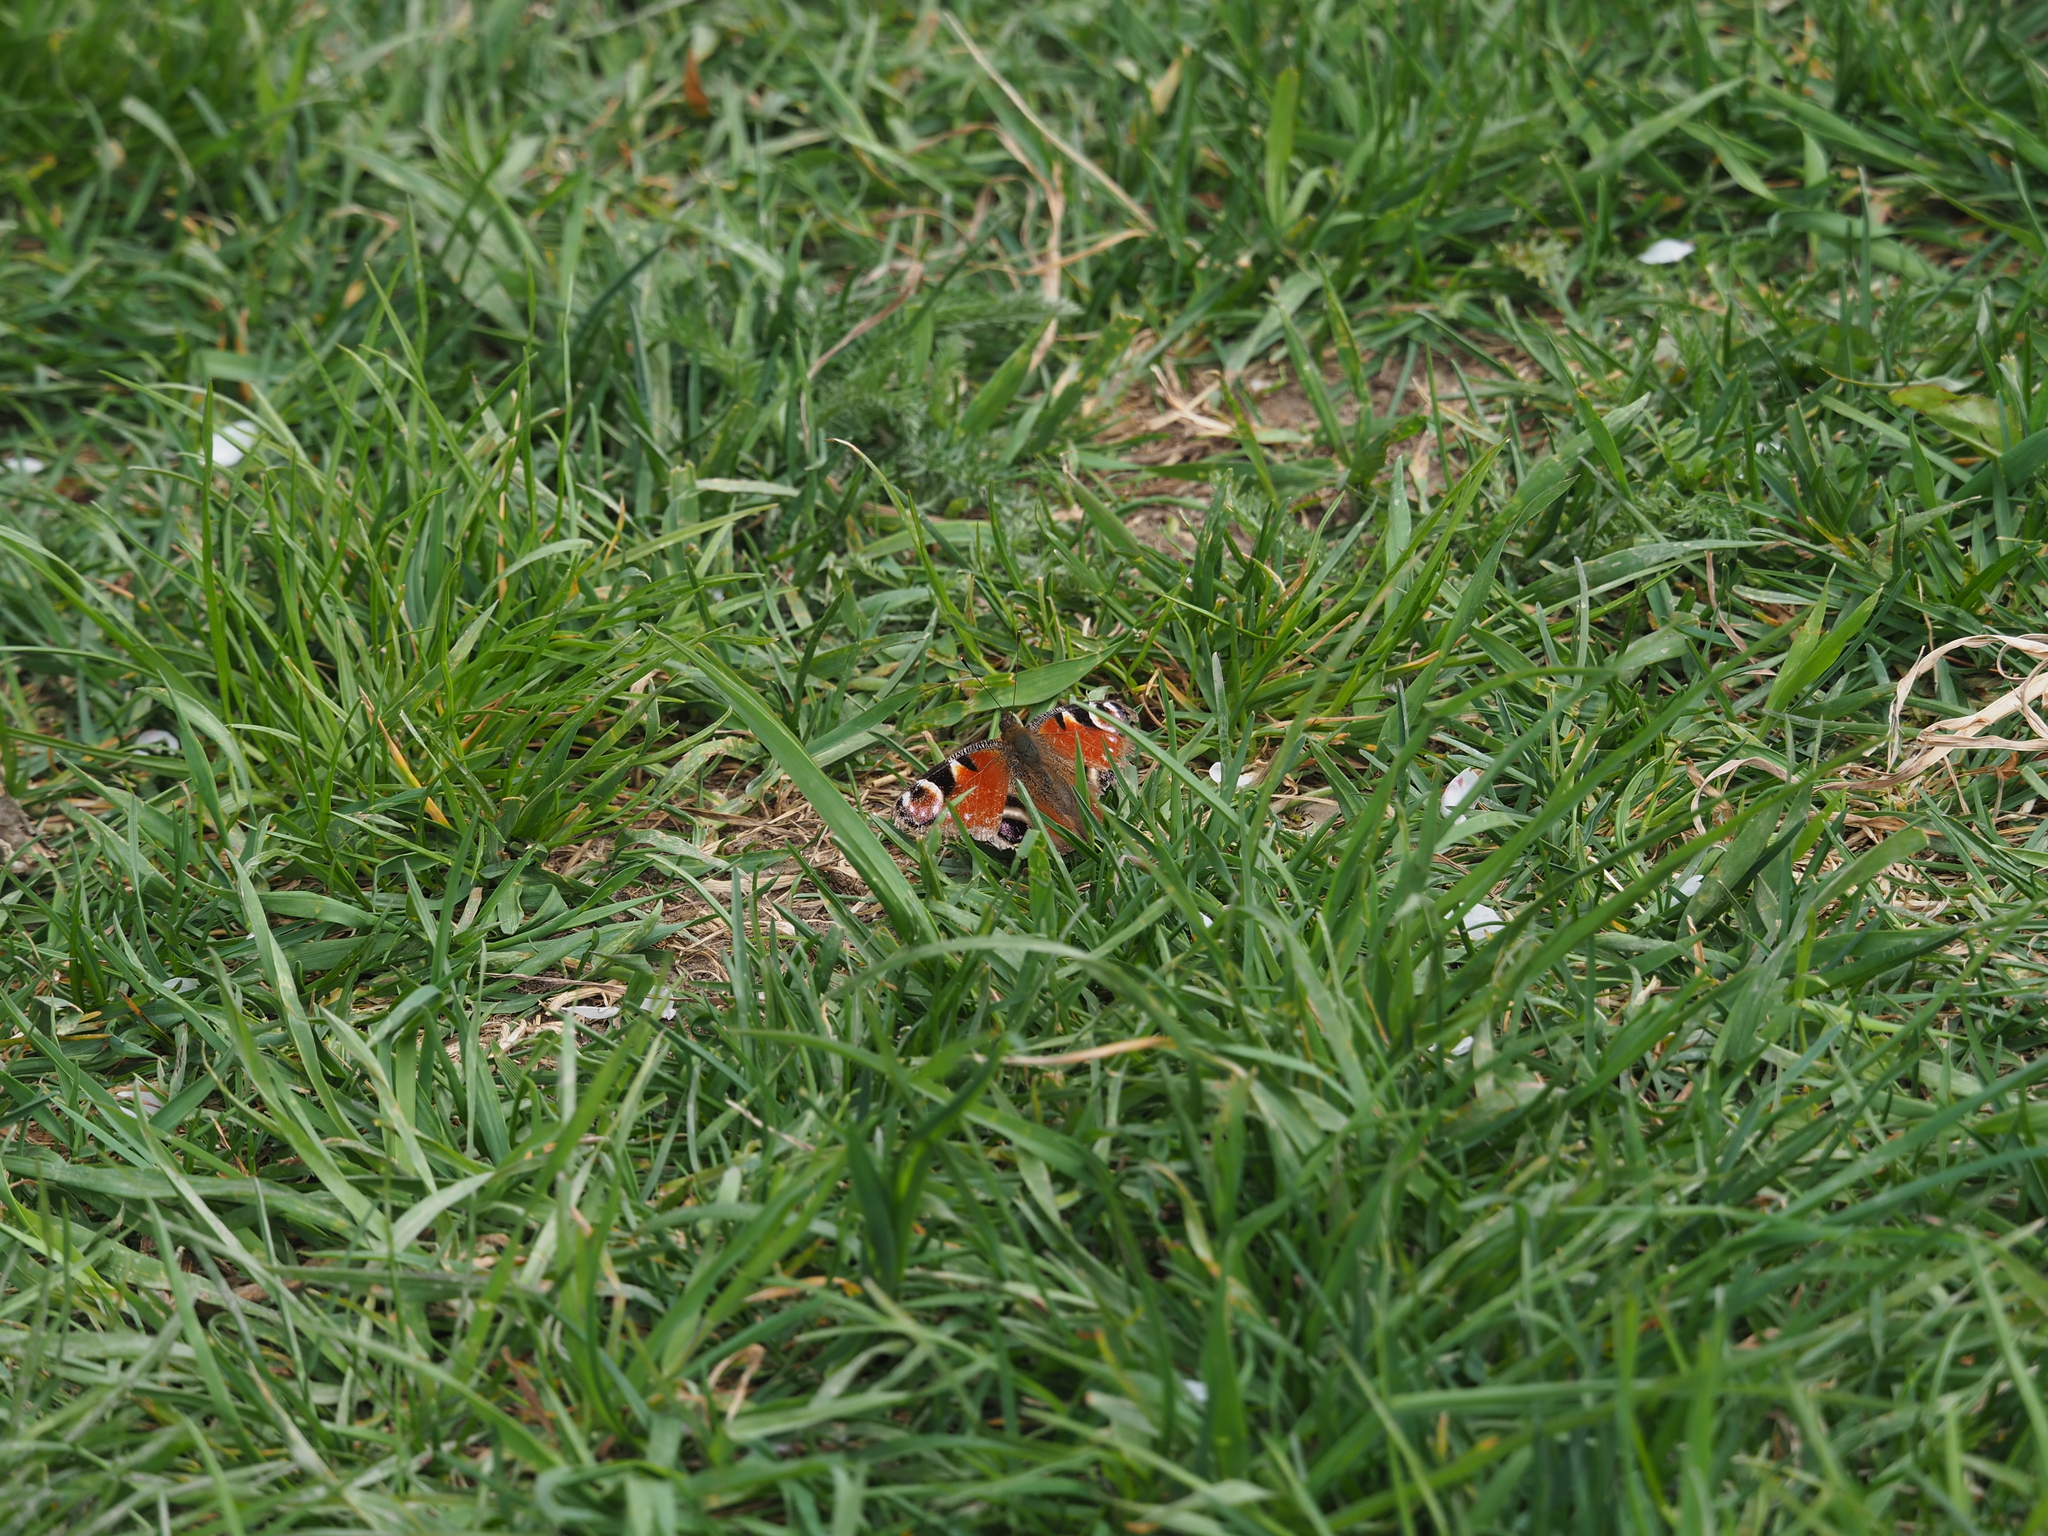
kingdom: Animalia
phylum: Arthropoda
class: Insecta
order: Lepidoptera
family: Nymphalidae
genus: Aglais
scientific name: Aglais io
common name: Peacock
